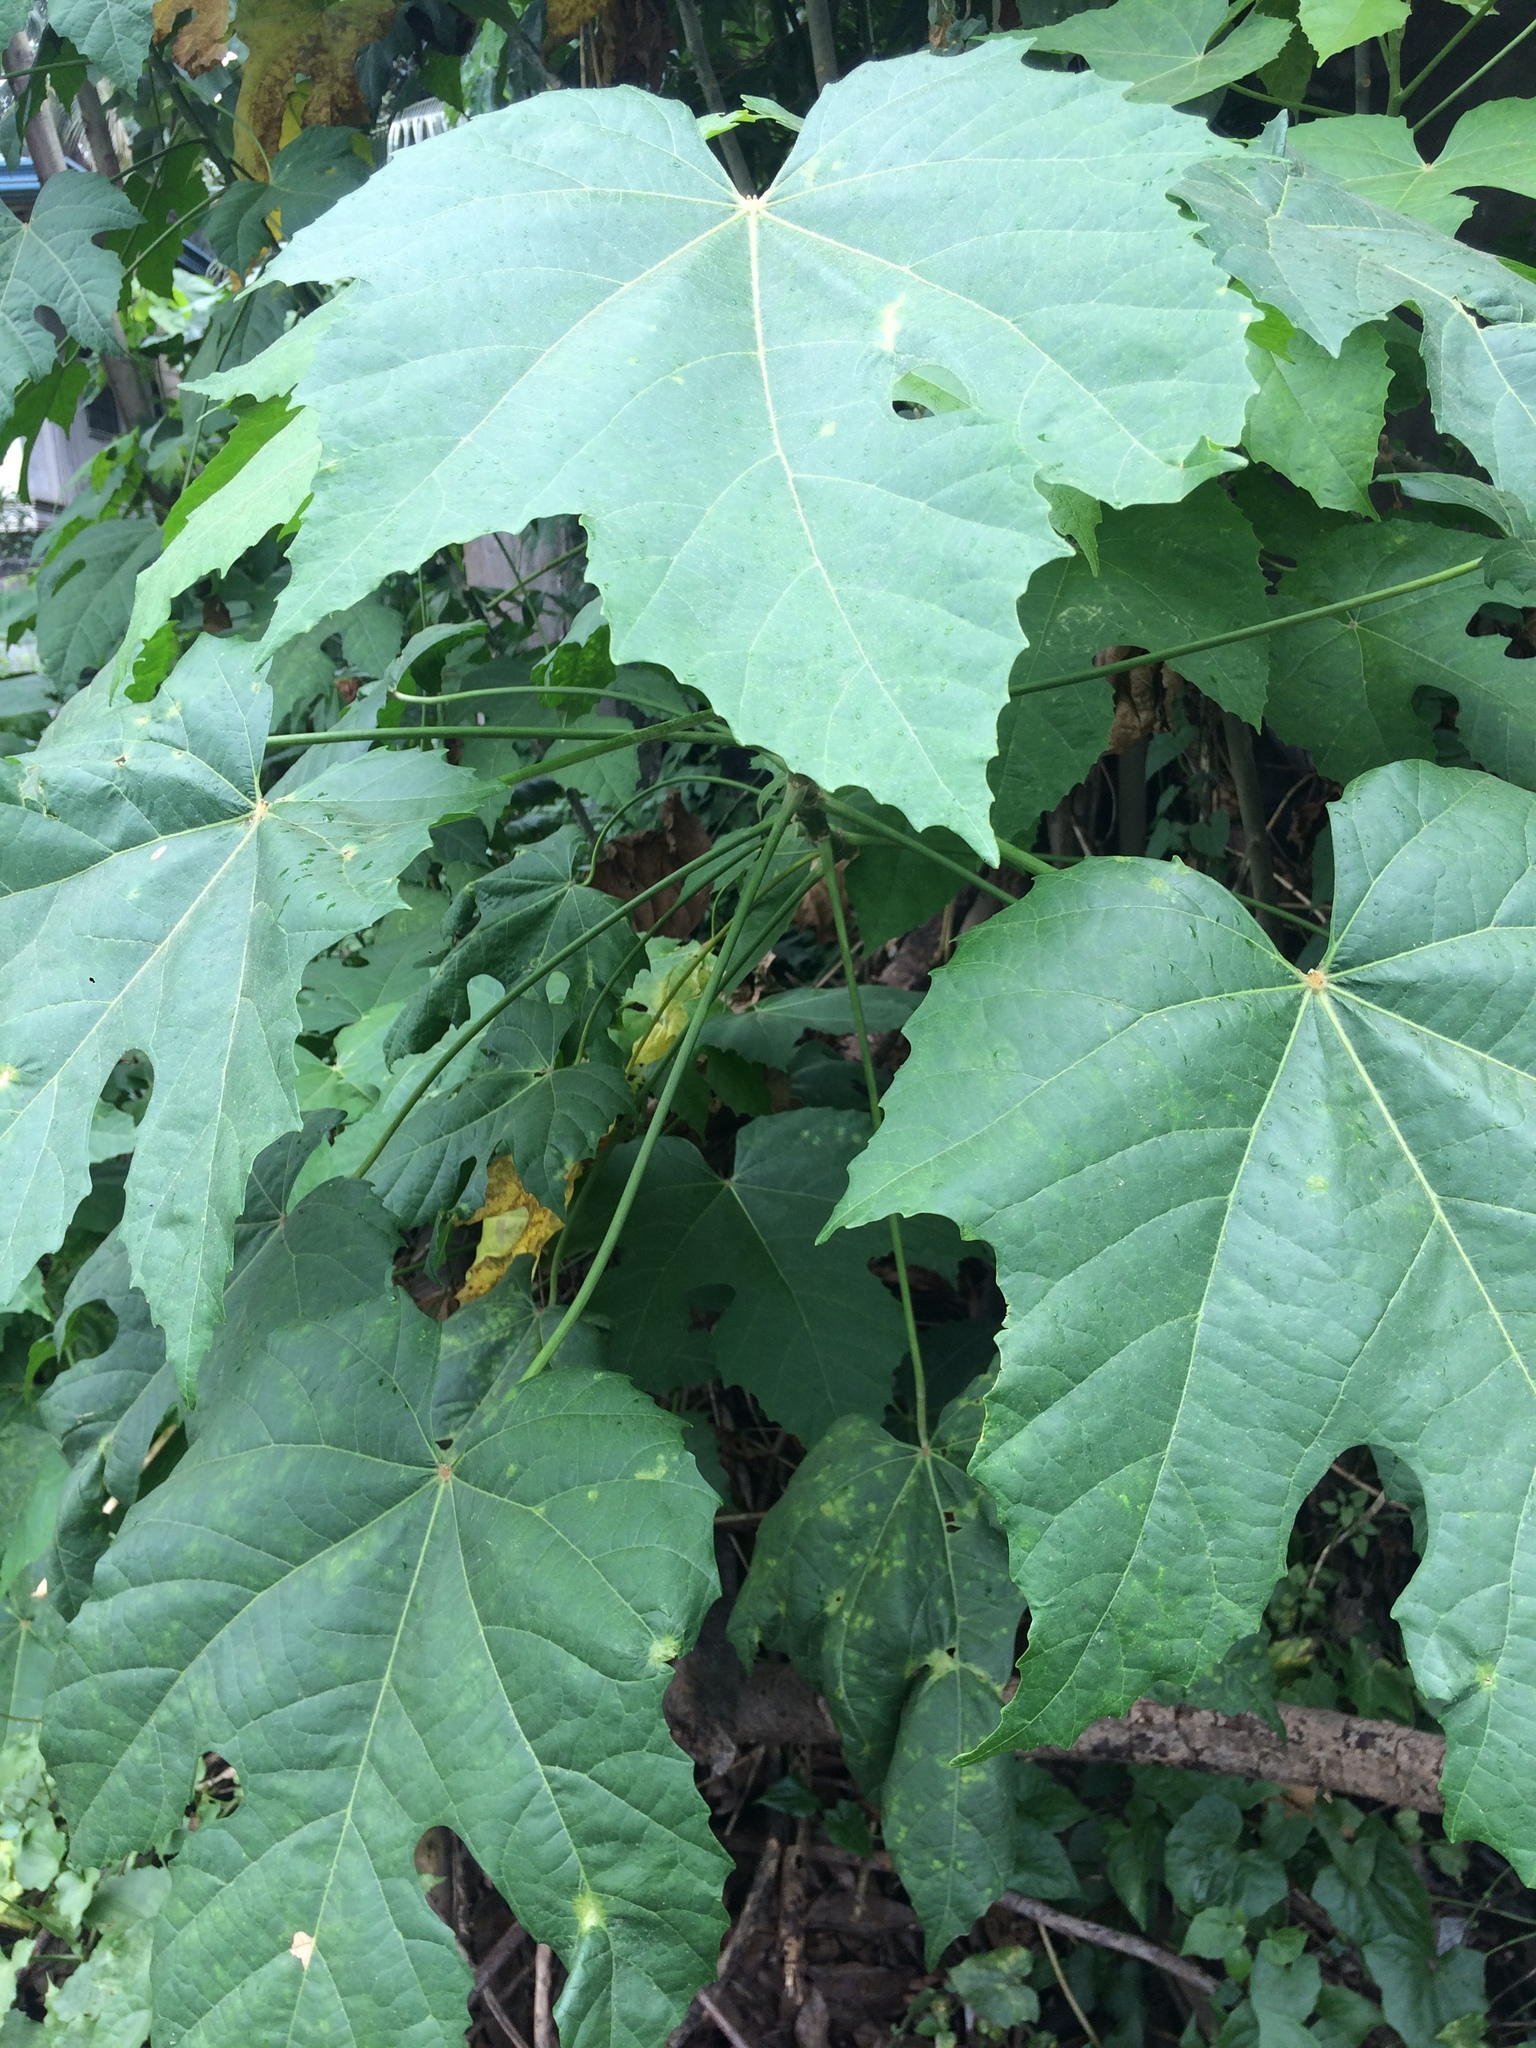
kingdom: Plantae
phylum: Tracheophyta
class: Magnoliopsida
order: Malpighiales
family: Euphorbiaceae
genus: Melanolepis
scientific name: Melanolepis multiglandulosa
